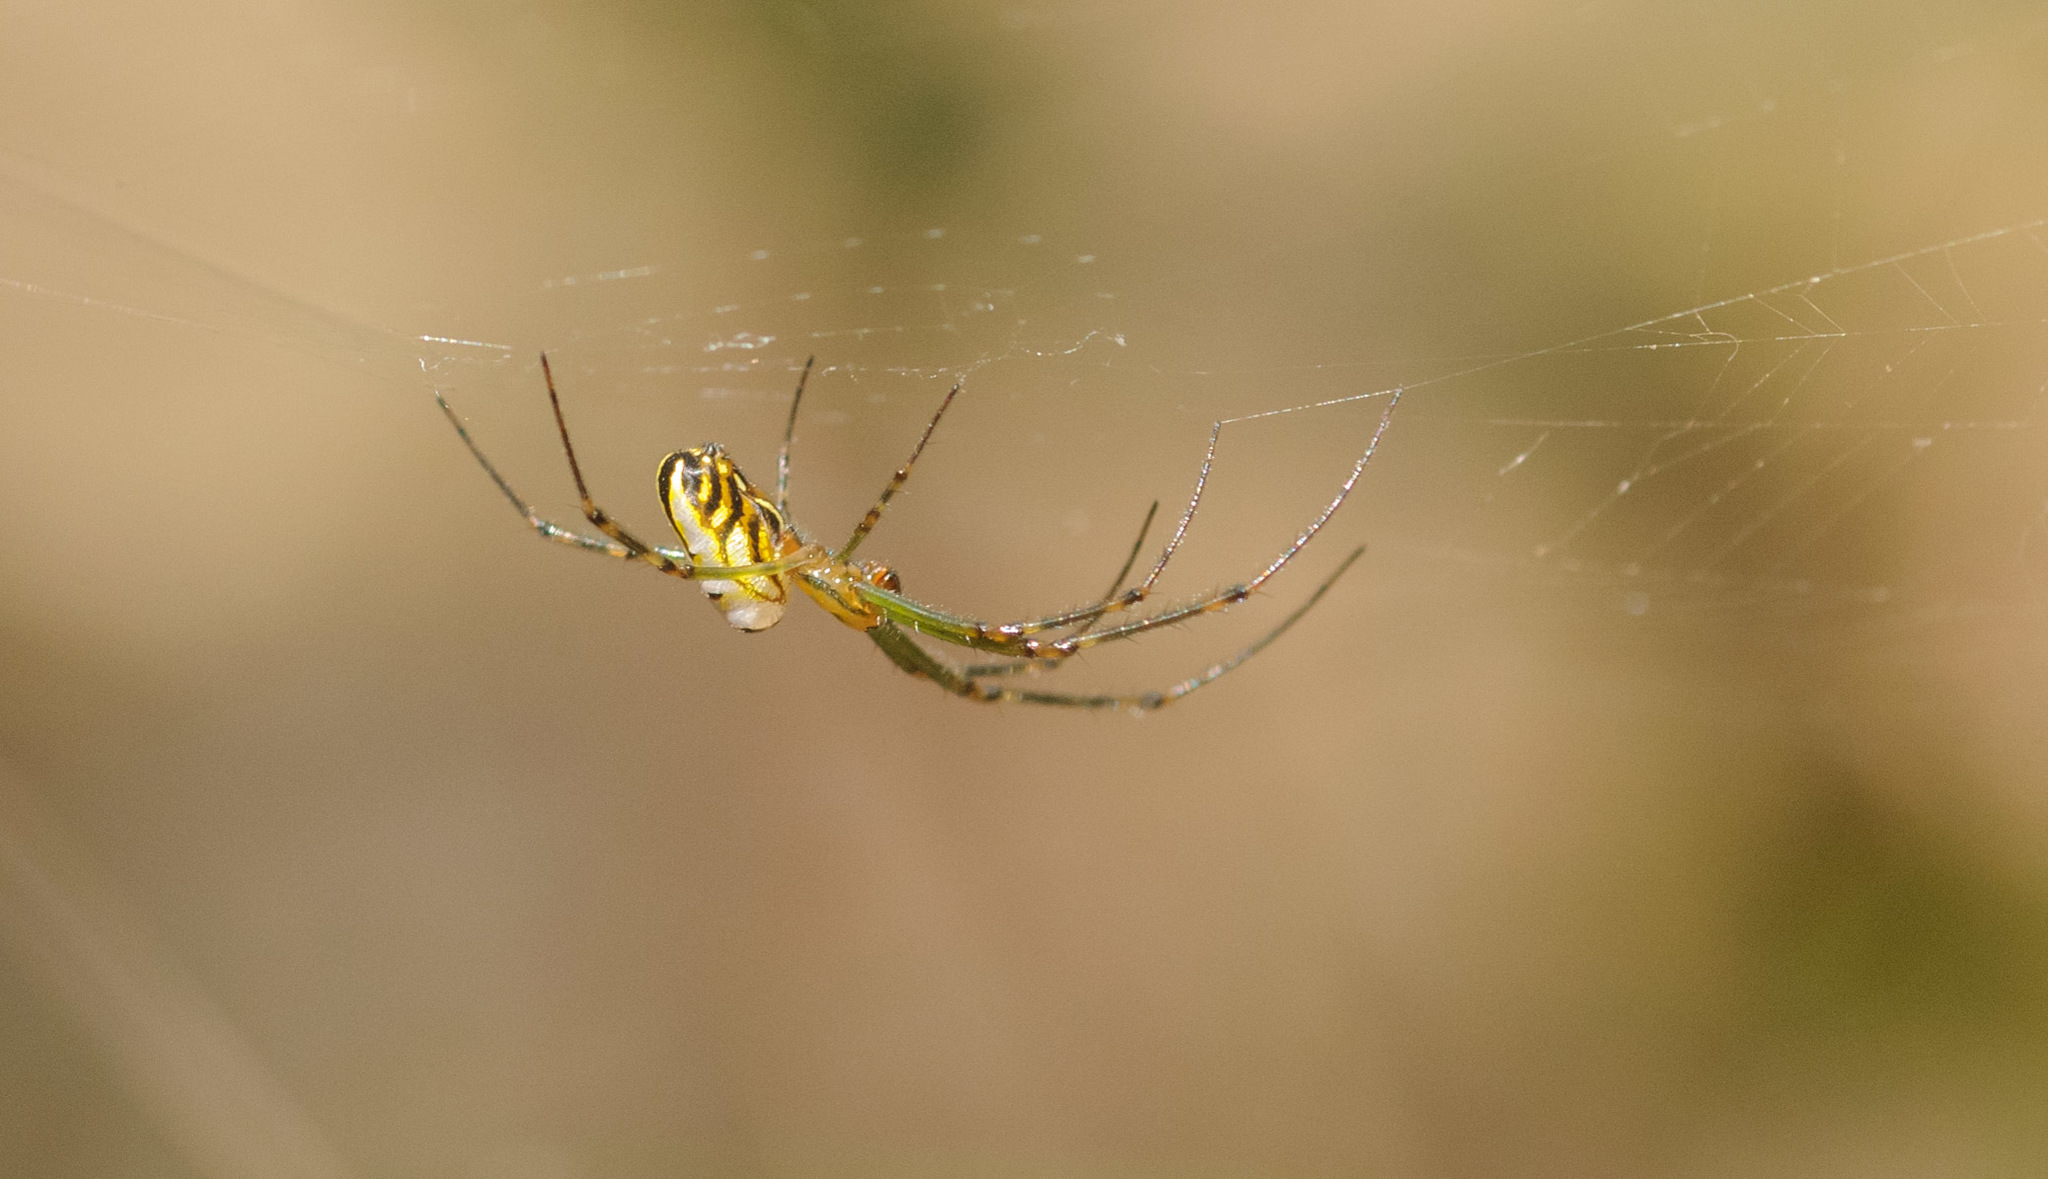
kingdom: Animalia
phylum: Arthropoda
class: Arachnida
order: Araneae
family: Tetragnathidae
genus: Leucauge
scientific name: Leucauge dromedaria
